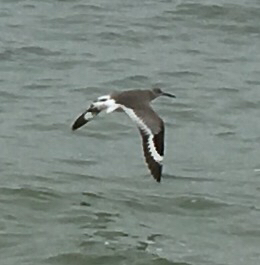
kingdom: Animalia
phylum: Chordata
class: Aves
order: Charadriiformes
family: Scolopacidae
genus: Tringa
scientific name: Tringa semipalmata
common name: Willet
